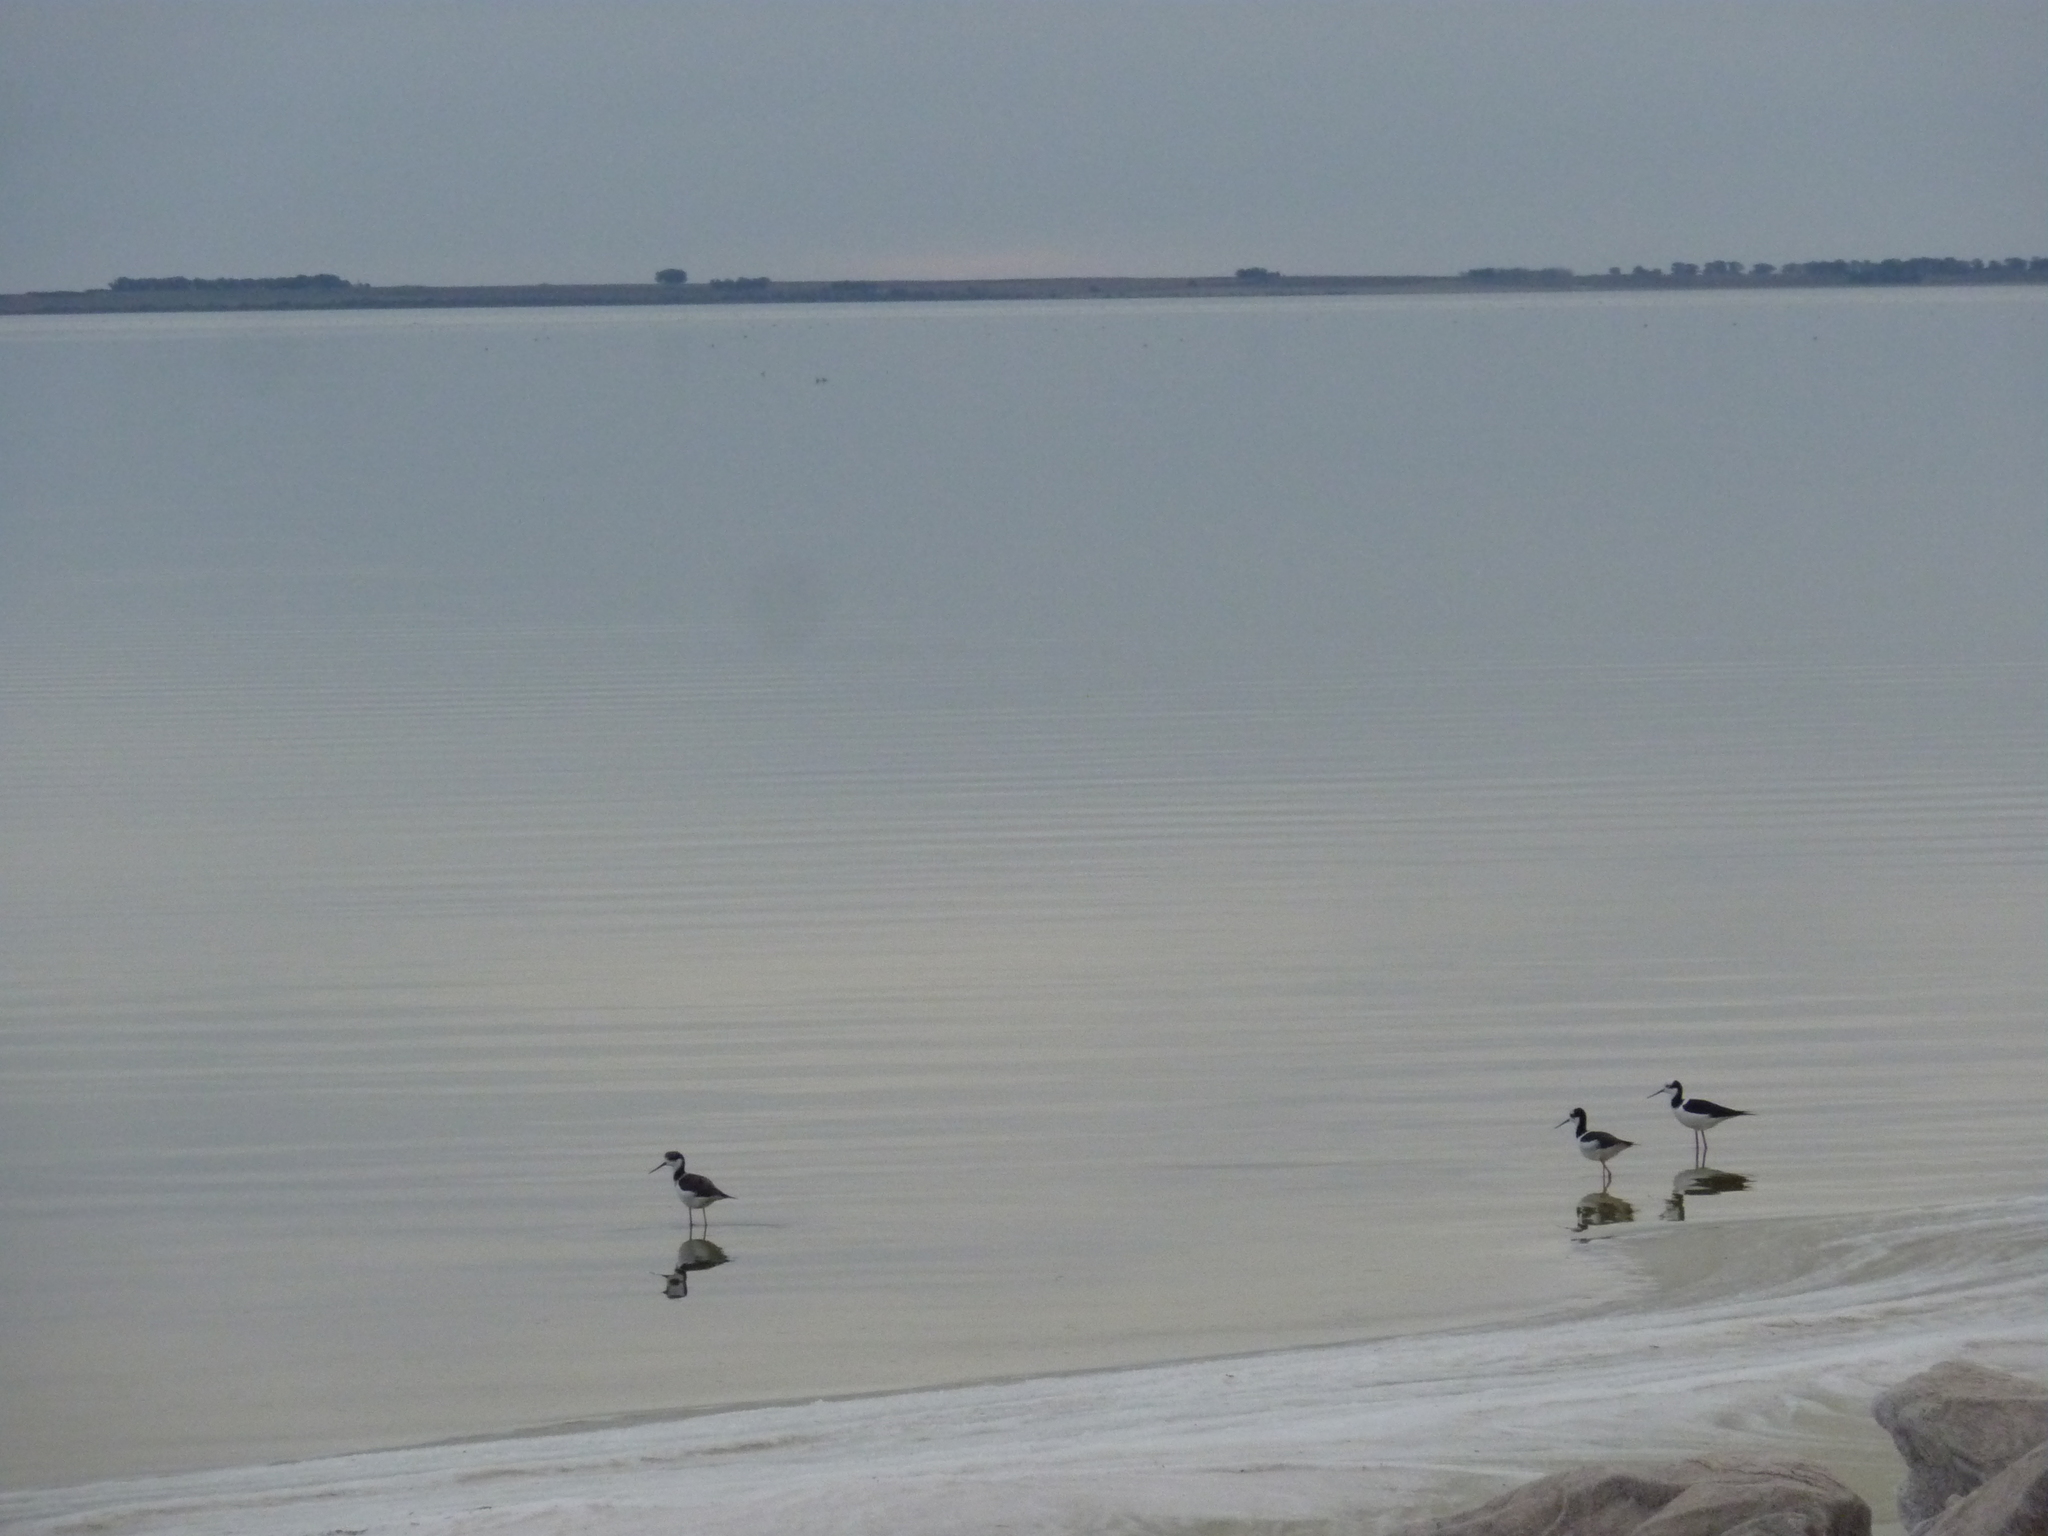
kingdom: Animalia
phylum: Chordata
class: Aves
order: Charadriiformes
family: Recurvirostridae
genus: Himantopus
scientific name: Himantopus mexicanus
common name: Black-necked stilt
